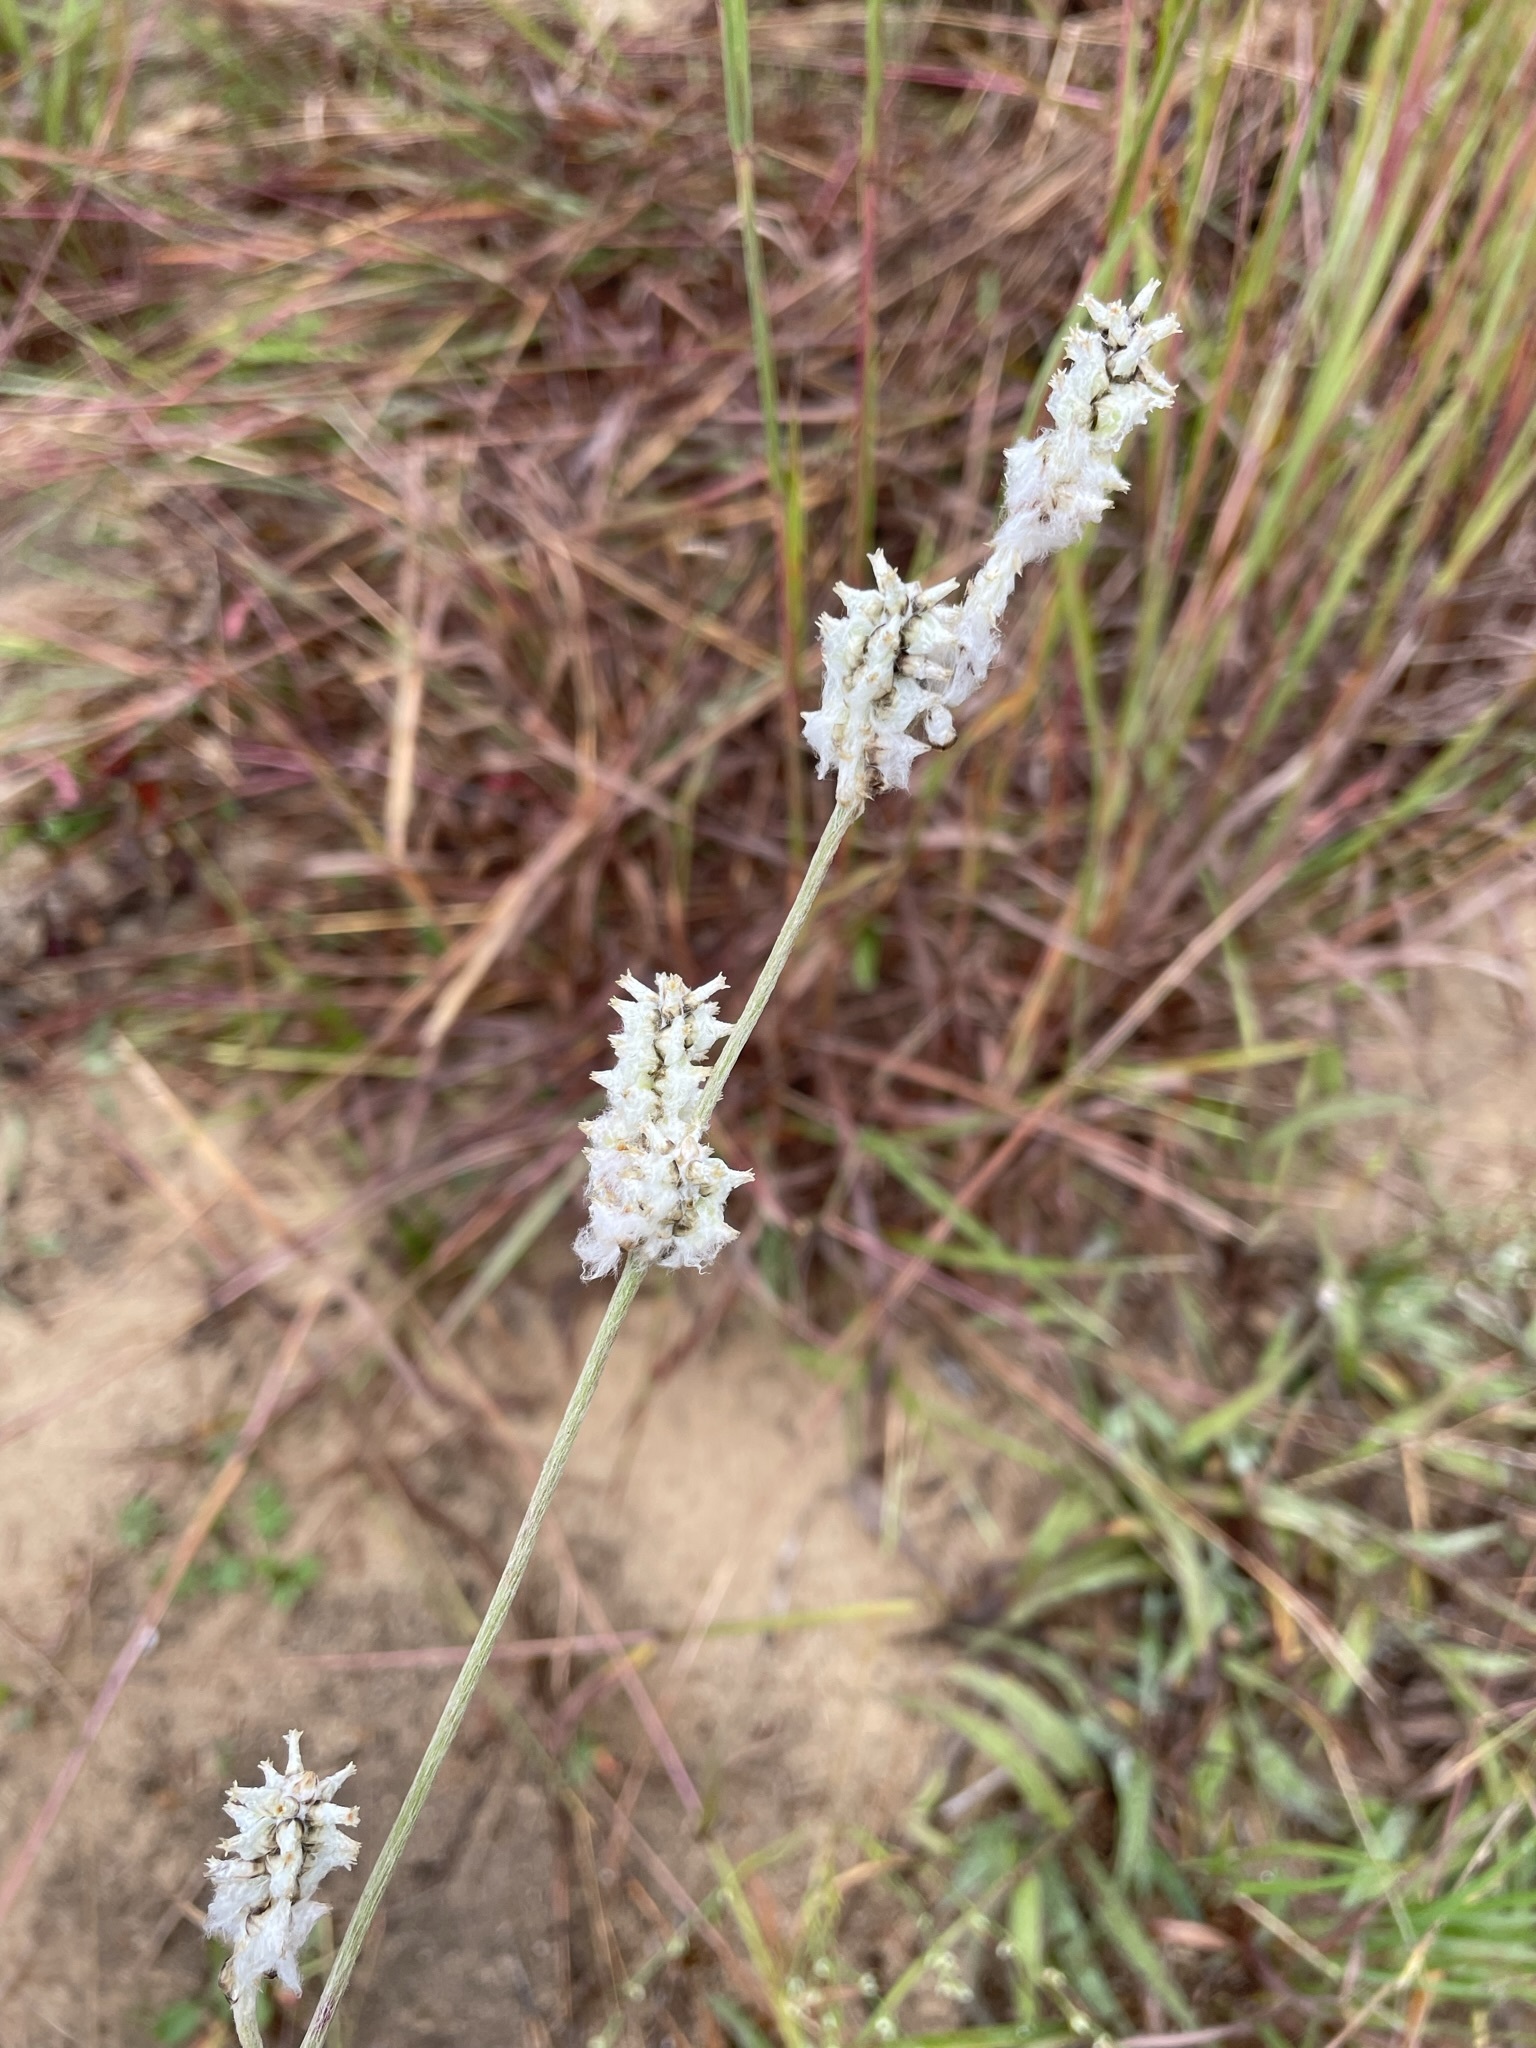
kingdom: Plantae
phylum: Tracheophyta
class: Magnoliopsida
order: Caryophyllales
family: Amaranthaceae
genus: Froelichia
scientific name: Froelichia floridana
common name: Florida snake-cotton
